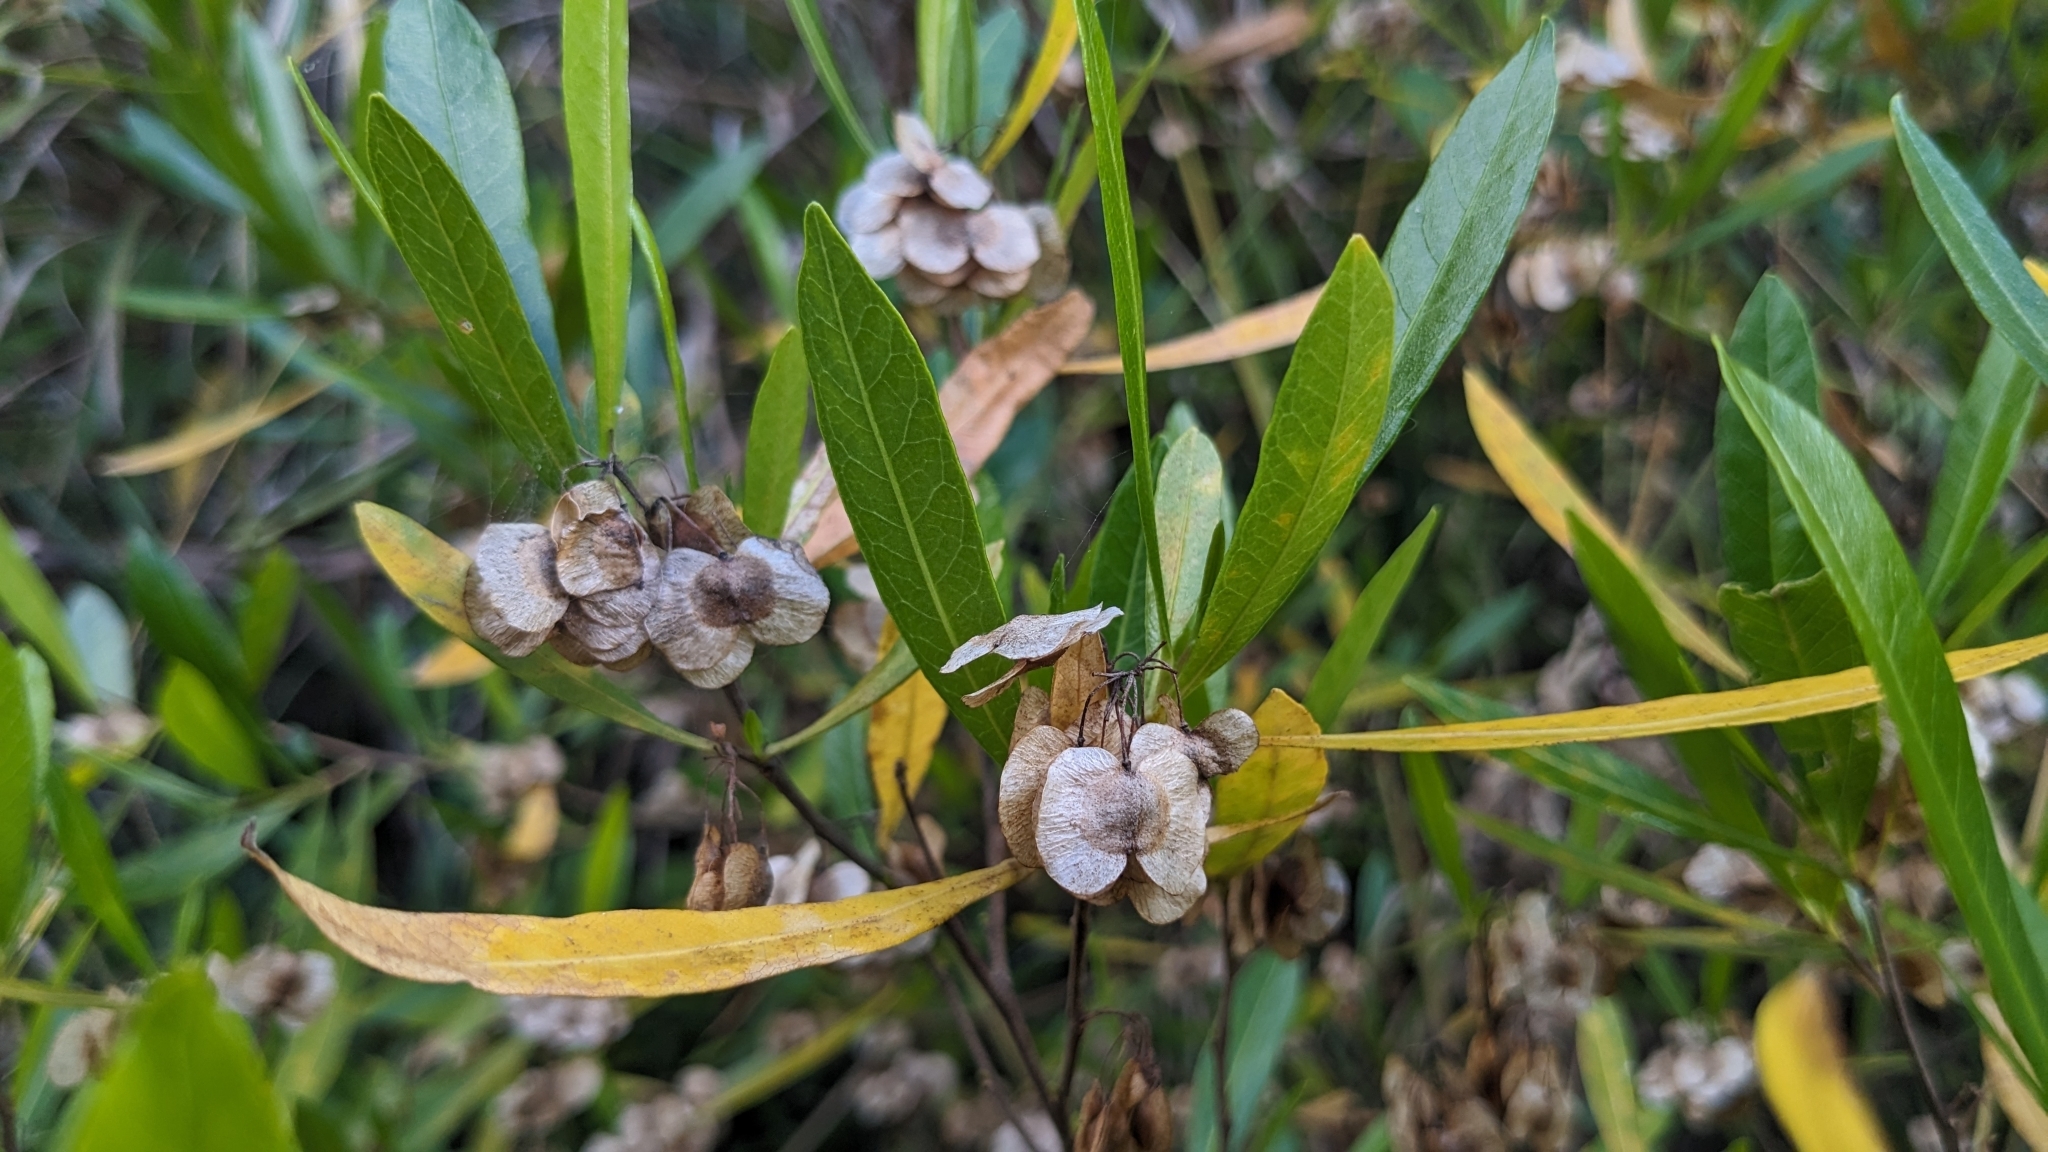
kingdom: Plantae
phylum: Tracheophyta
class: Magnoliopsida
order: Sapindales
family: Sapindaceae
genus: Dodonaea
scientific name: Dodonaea viscosa
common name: Hopbush
